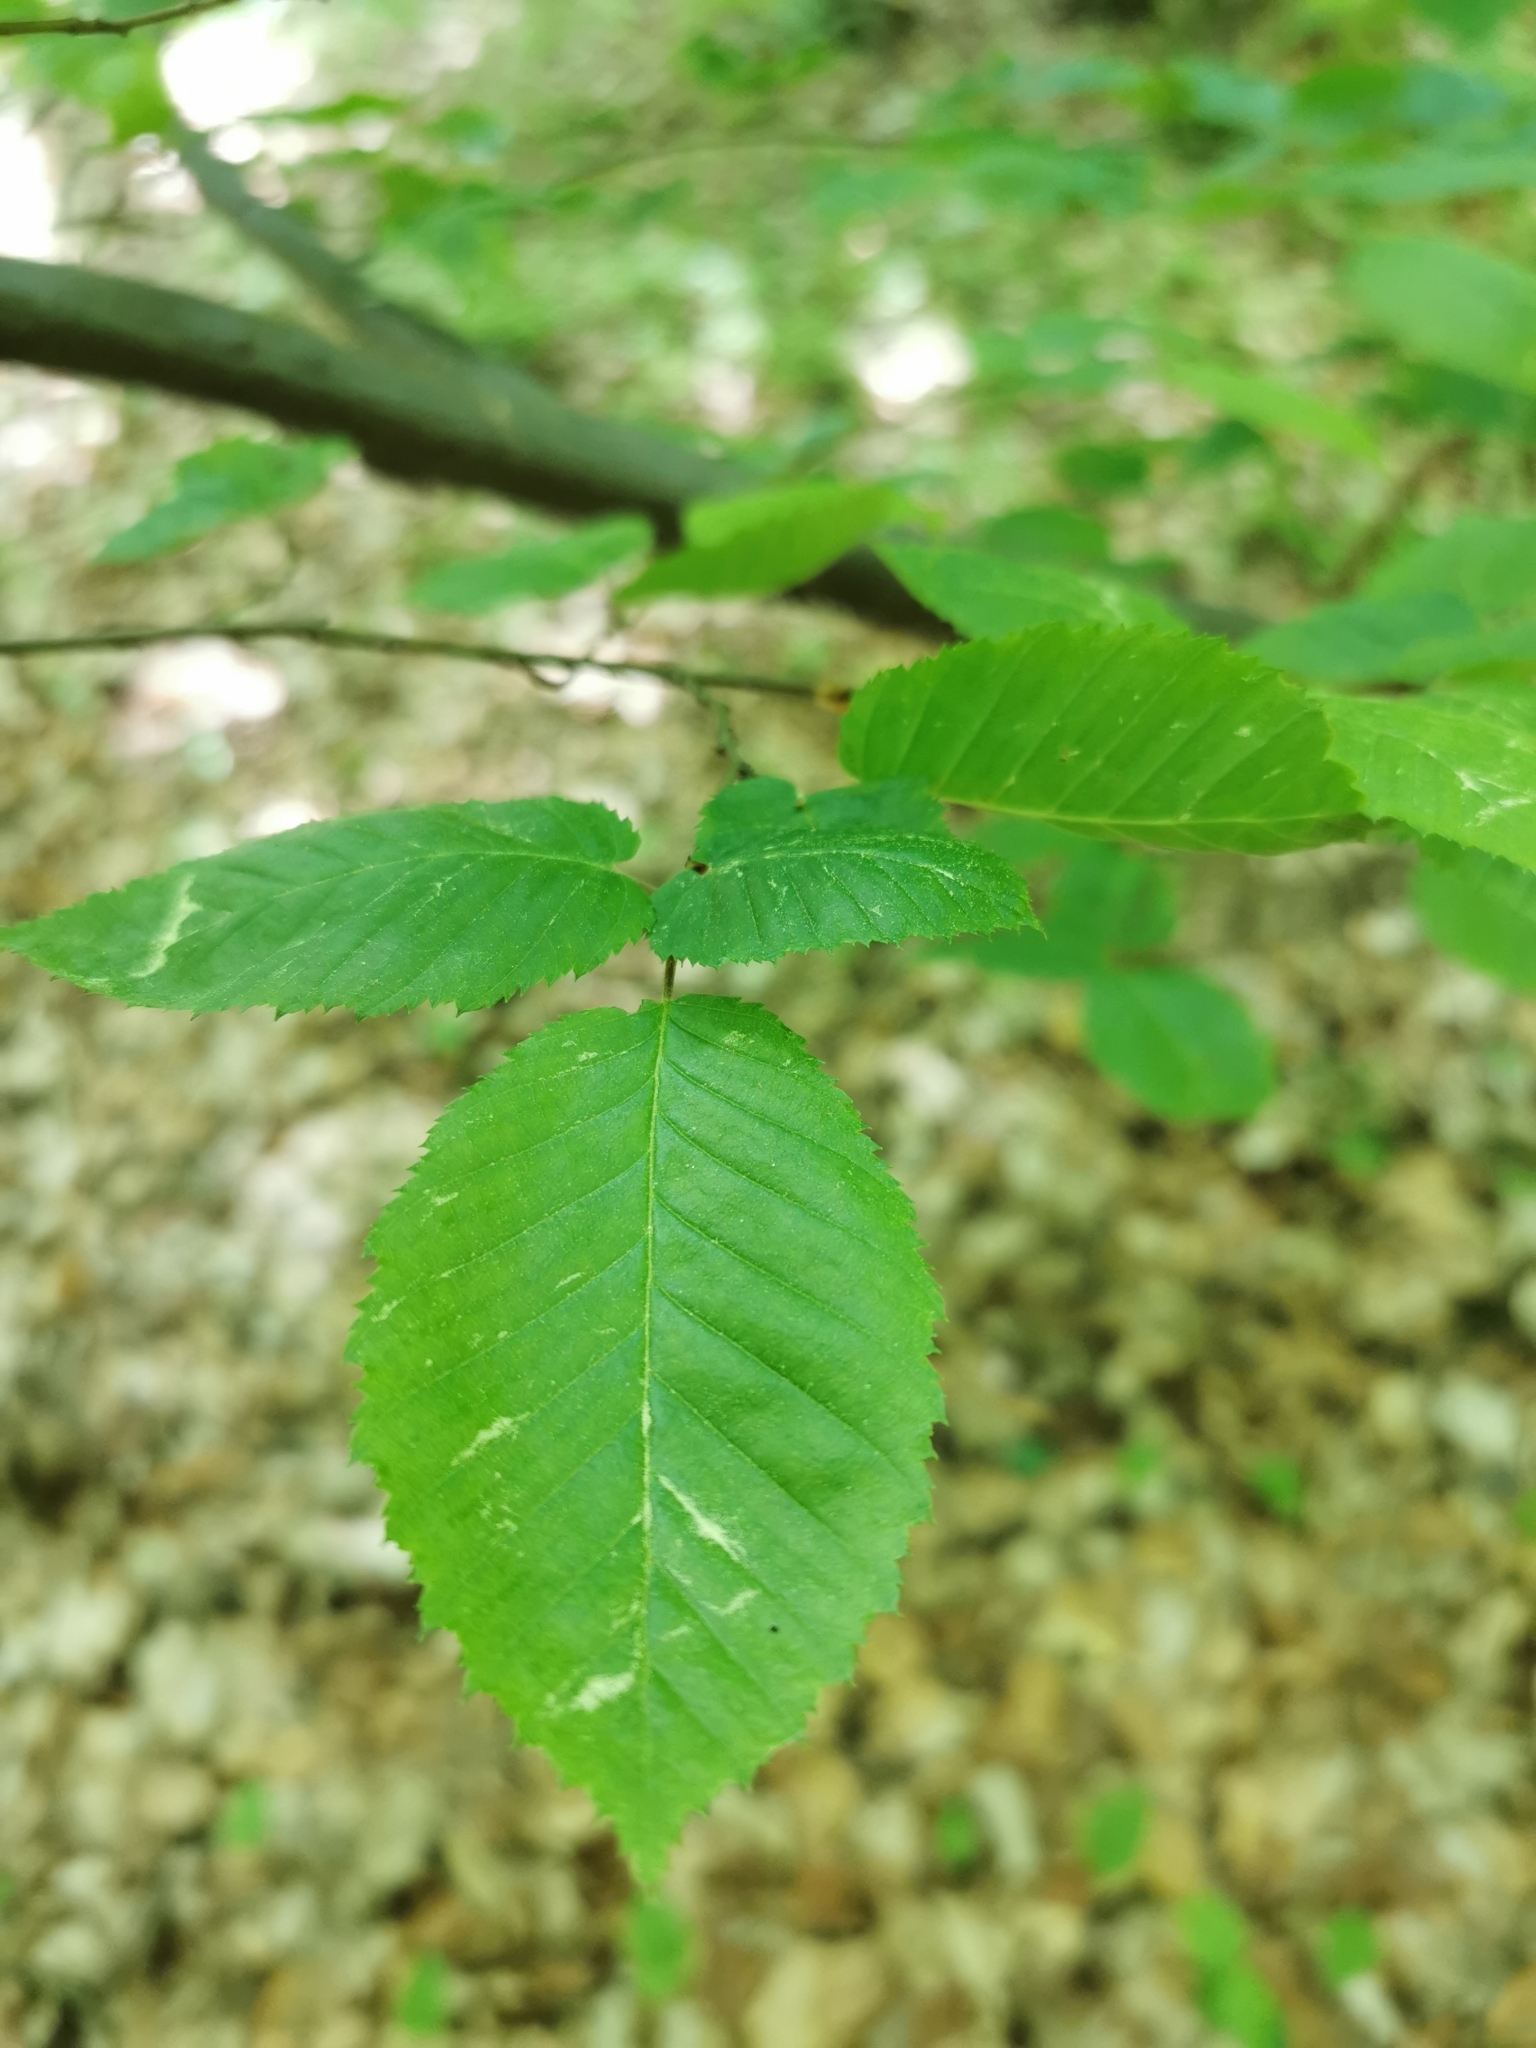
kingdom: Plantae
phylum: Tracheophyta
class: Magnoliopsida
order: Fagales
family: Betulaceae
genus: Carpinus
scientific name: Carpinus betulus
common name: Hornbeam
